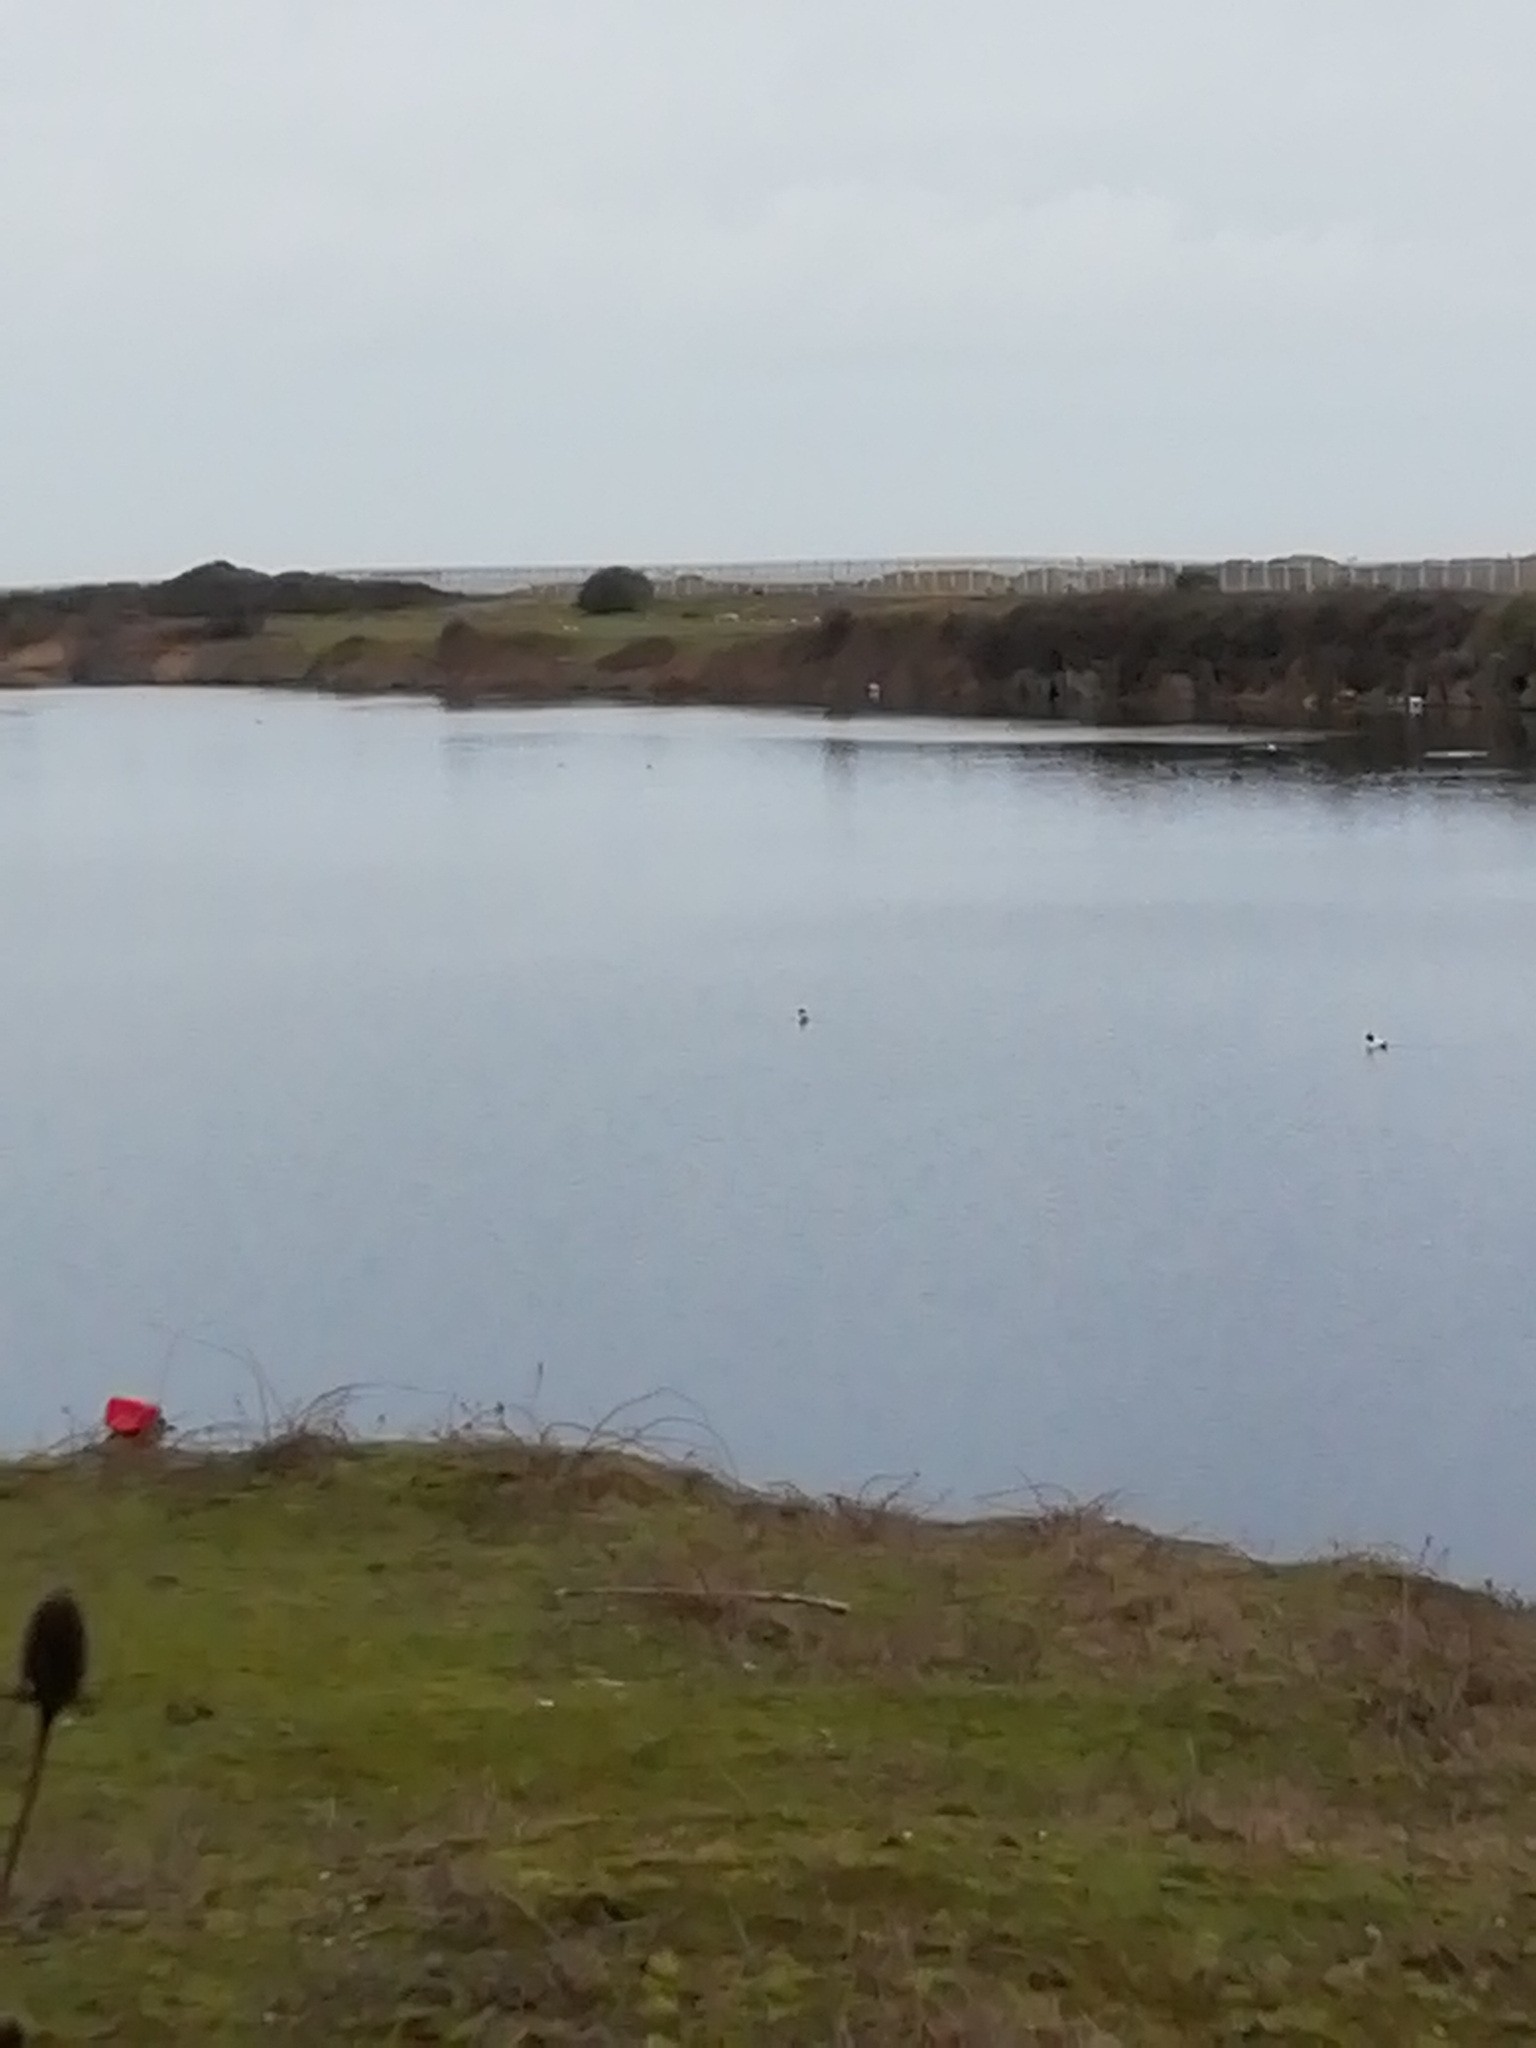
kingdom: Animalia
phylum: Chordata
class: Aves
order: Anseriformes
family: Anatidae
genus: Aythya
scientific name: Aythya fuligula
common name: Tufted duck
